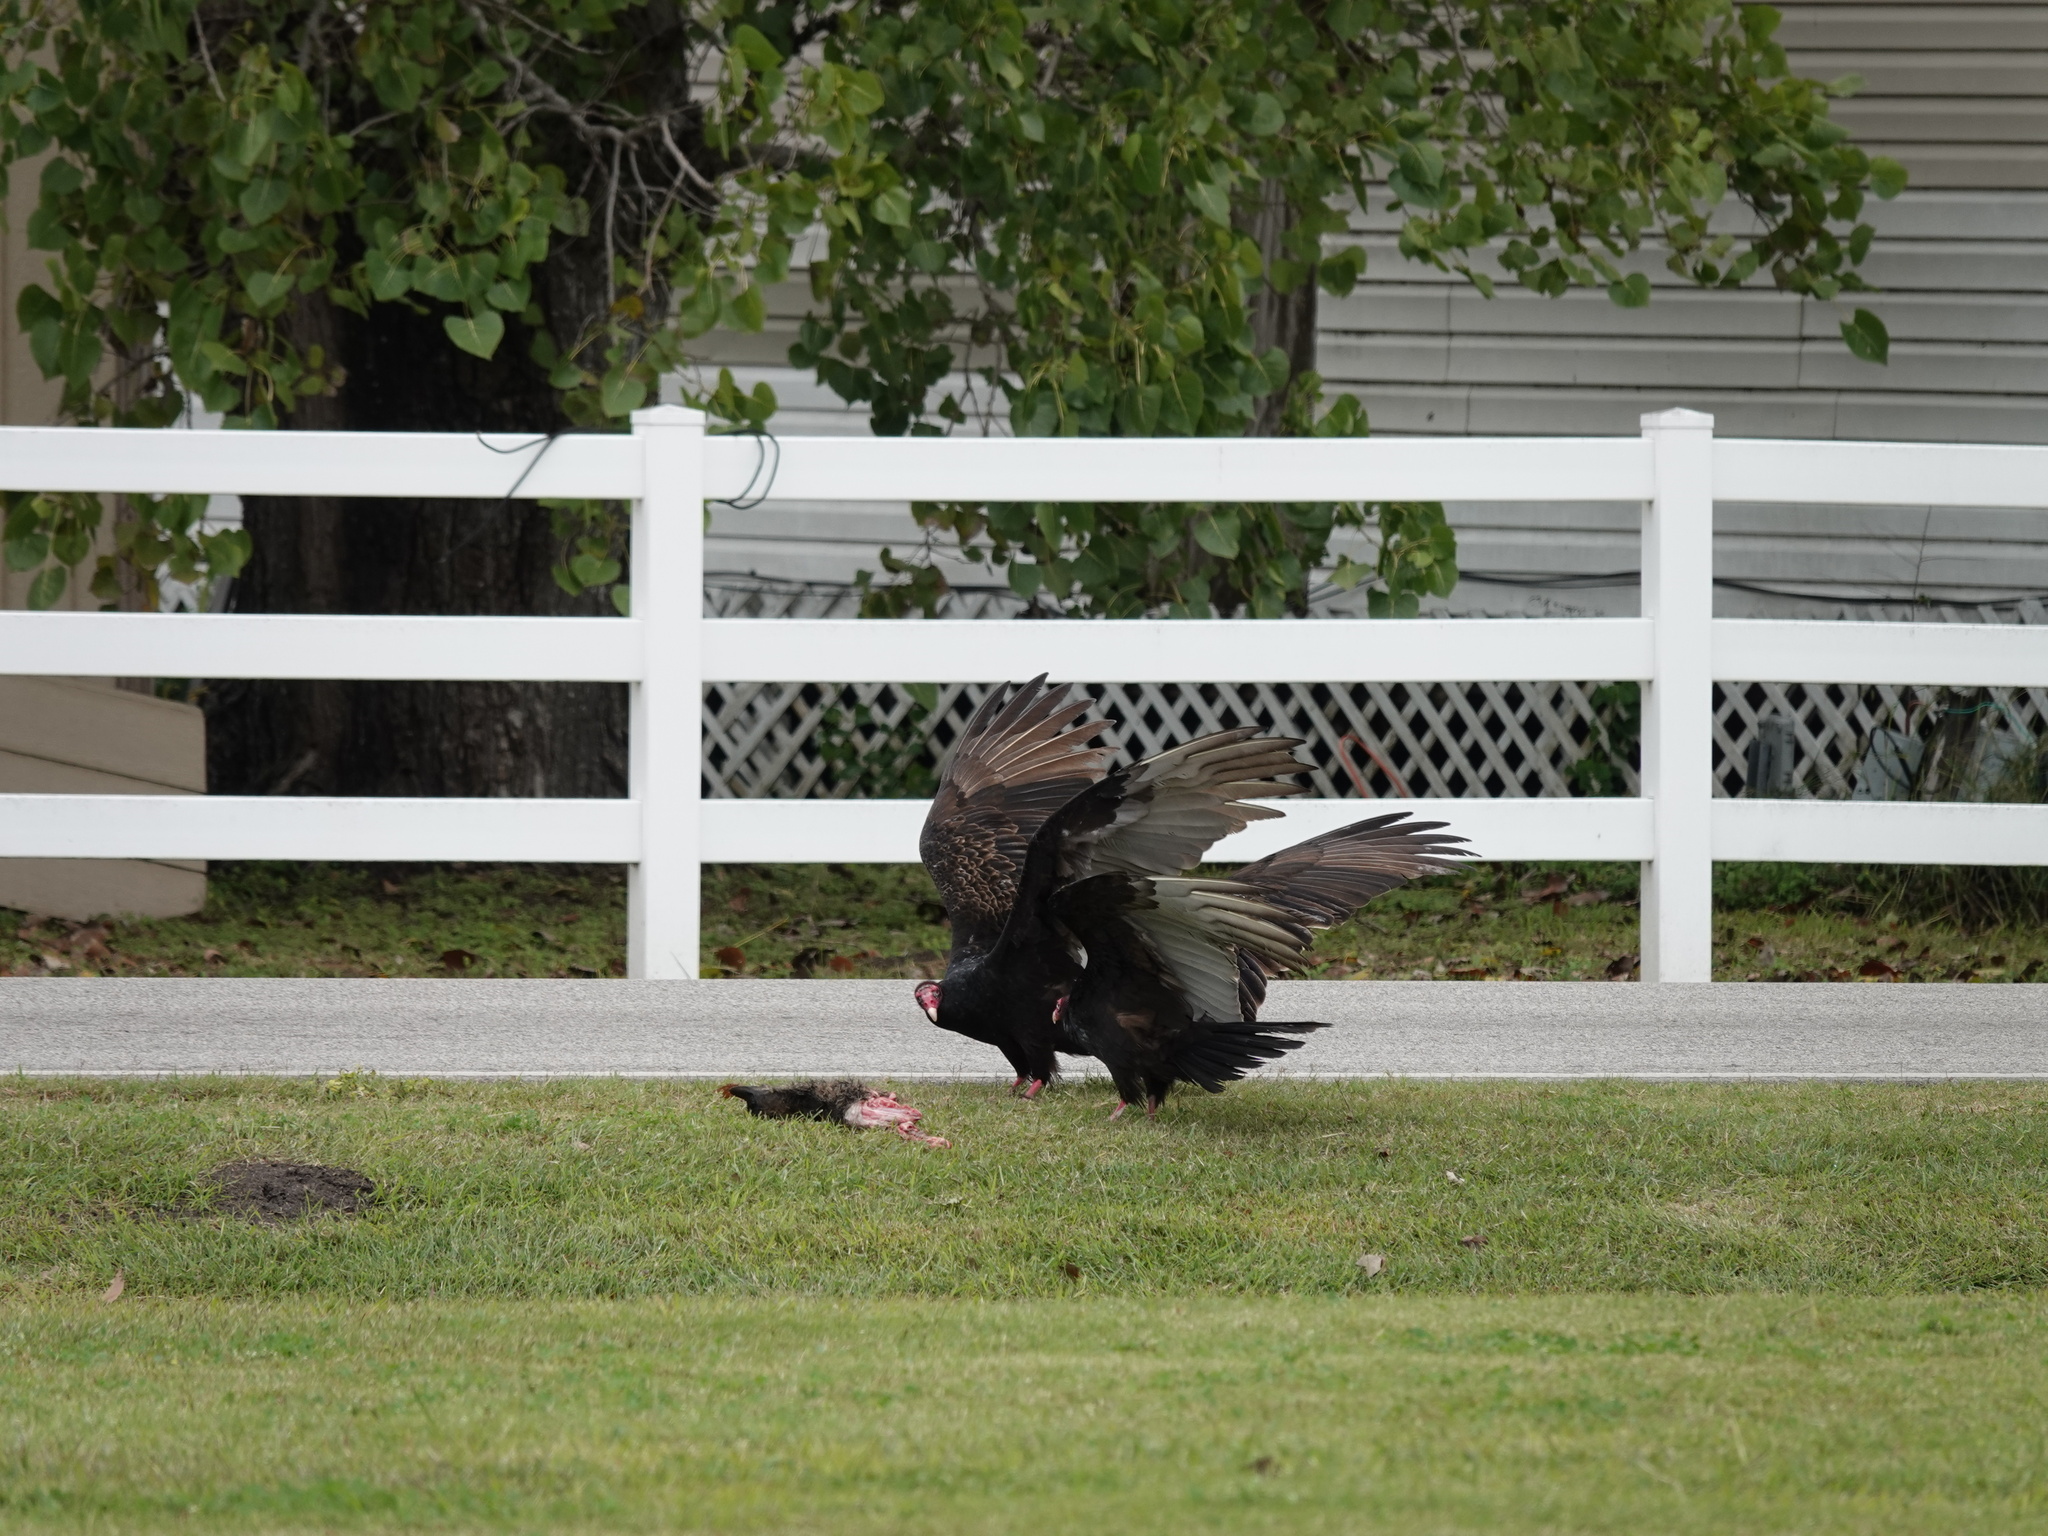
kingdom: Animalia
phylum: Chordata
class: Aves
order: Accipitriformes
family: Cathartidae
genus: Cathartes
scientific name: Cathartes aura
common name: Turkey vulture
